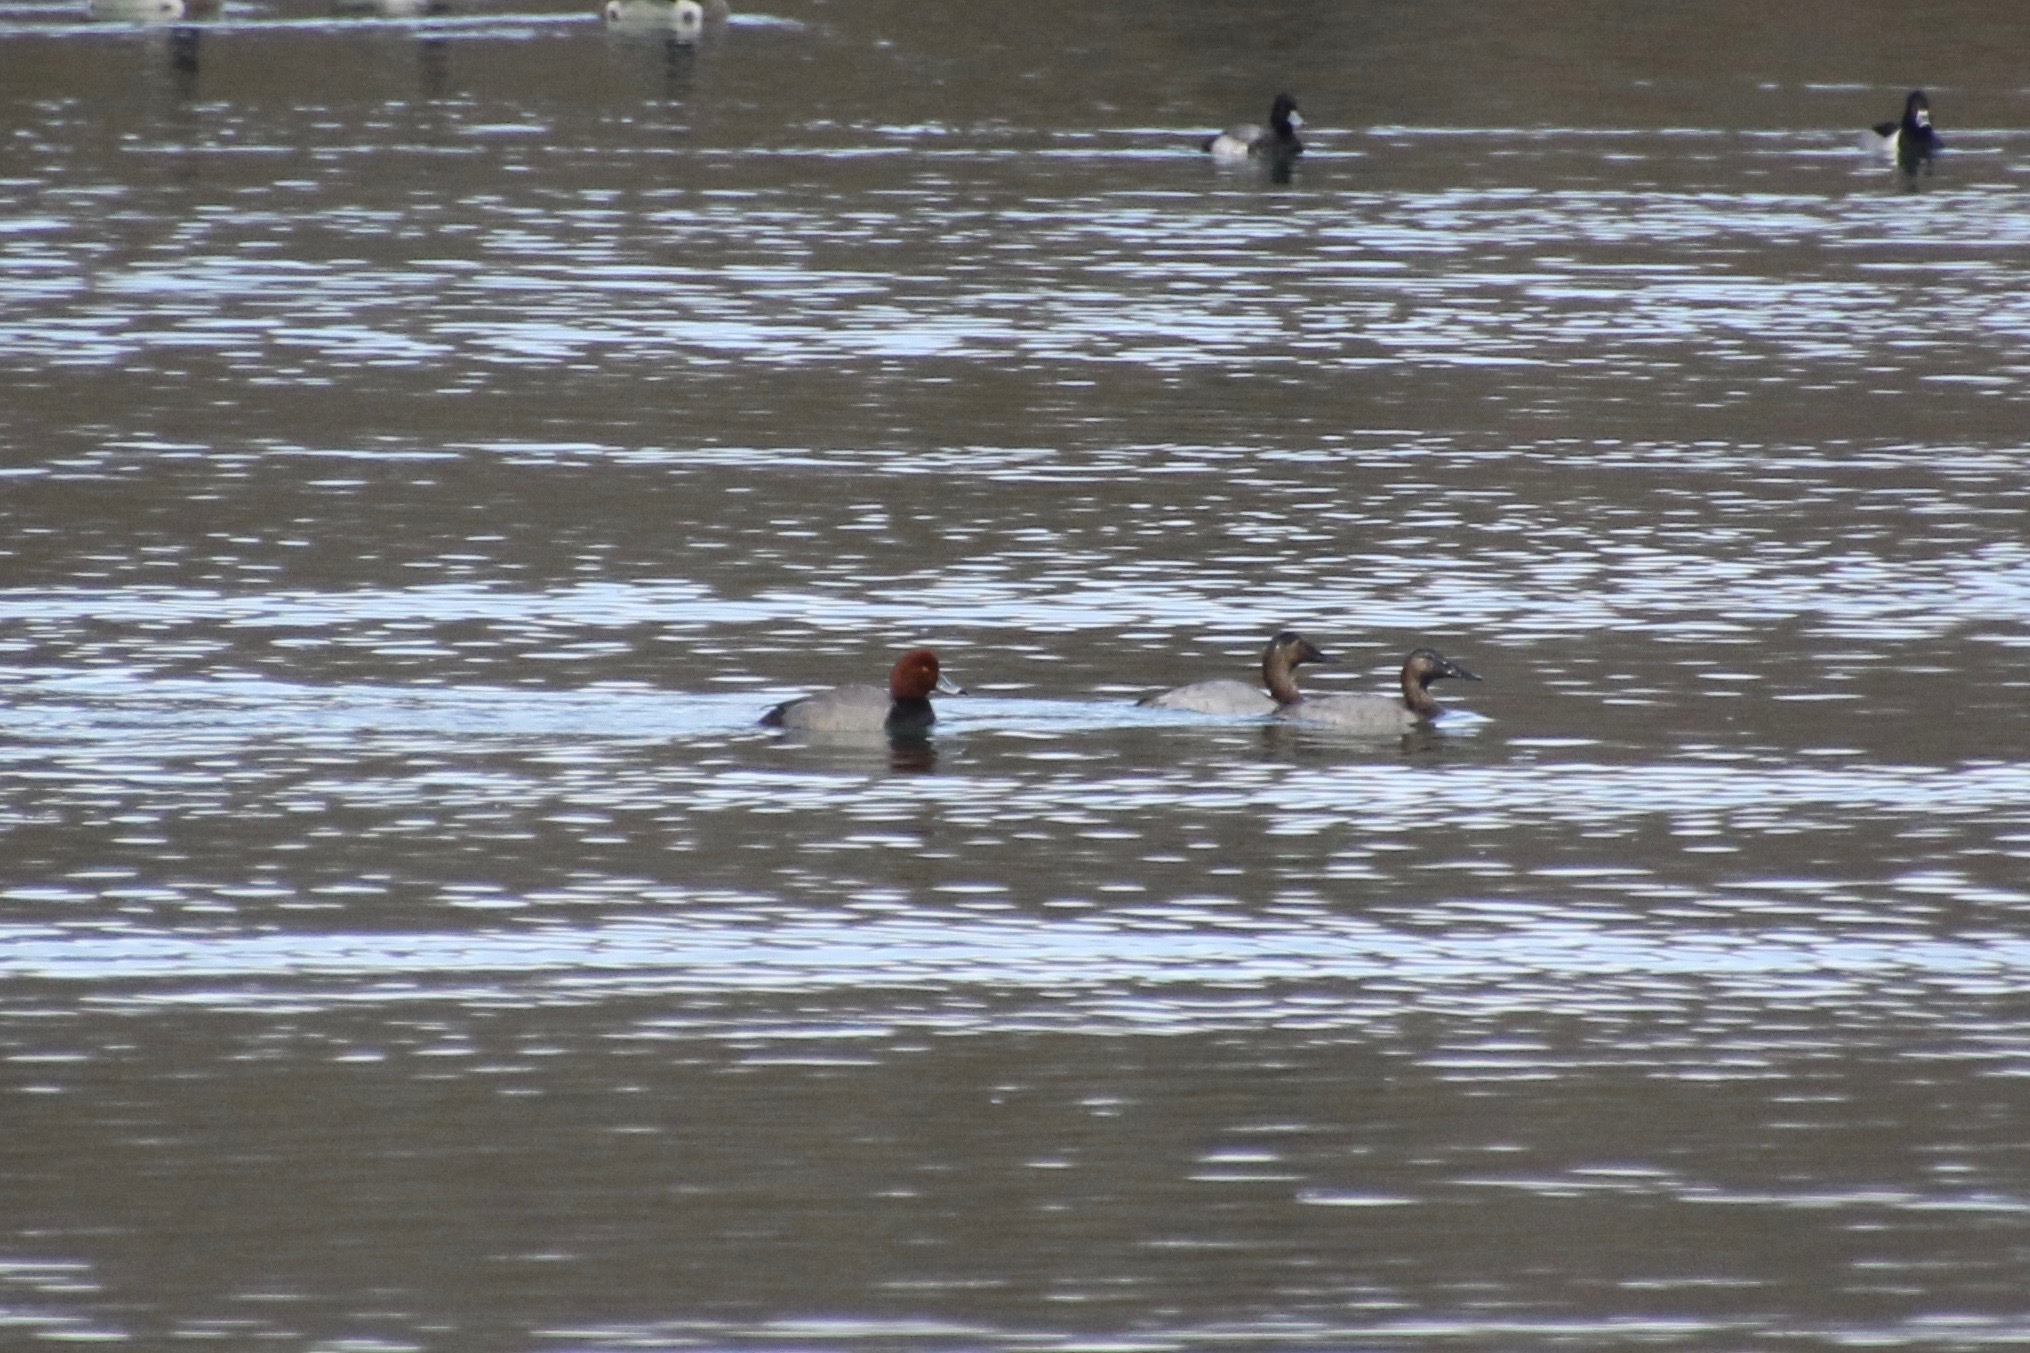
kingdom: Animalia
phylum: Chordata
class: Aves
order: Anseriformes
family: Anatidae
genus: Aythya
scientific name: Aythya valisineria
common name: Canvasback
